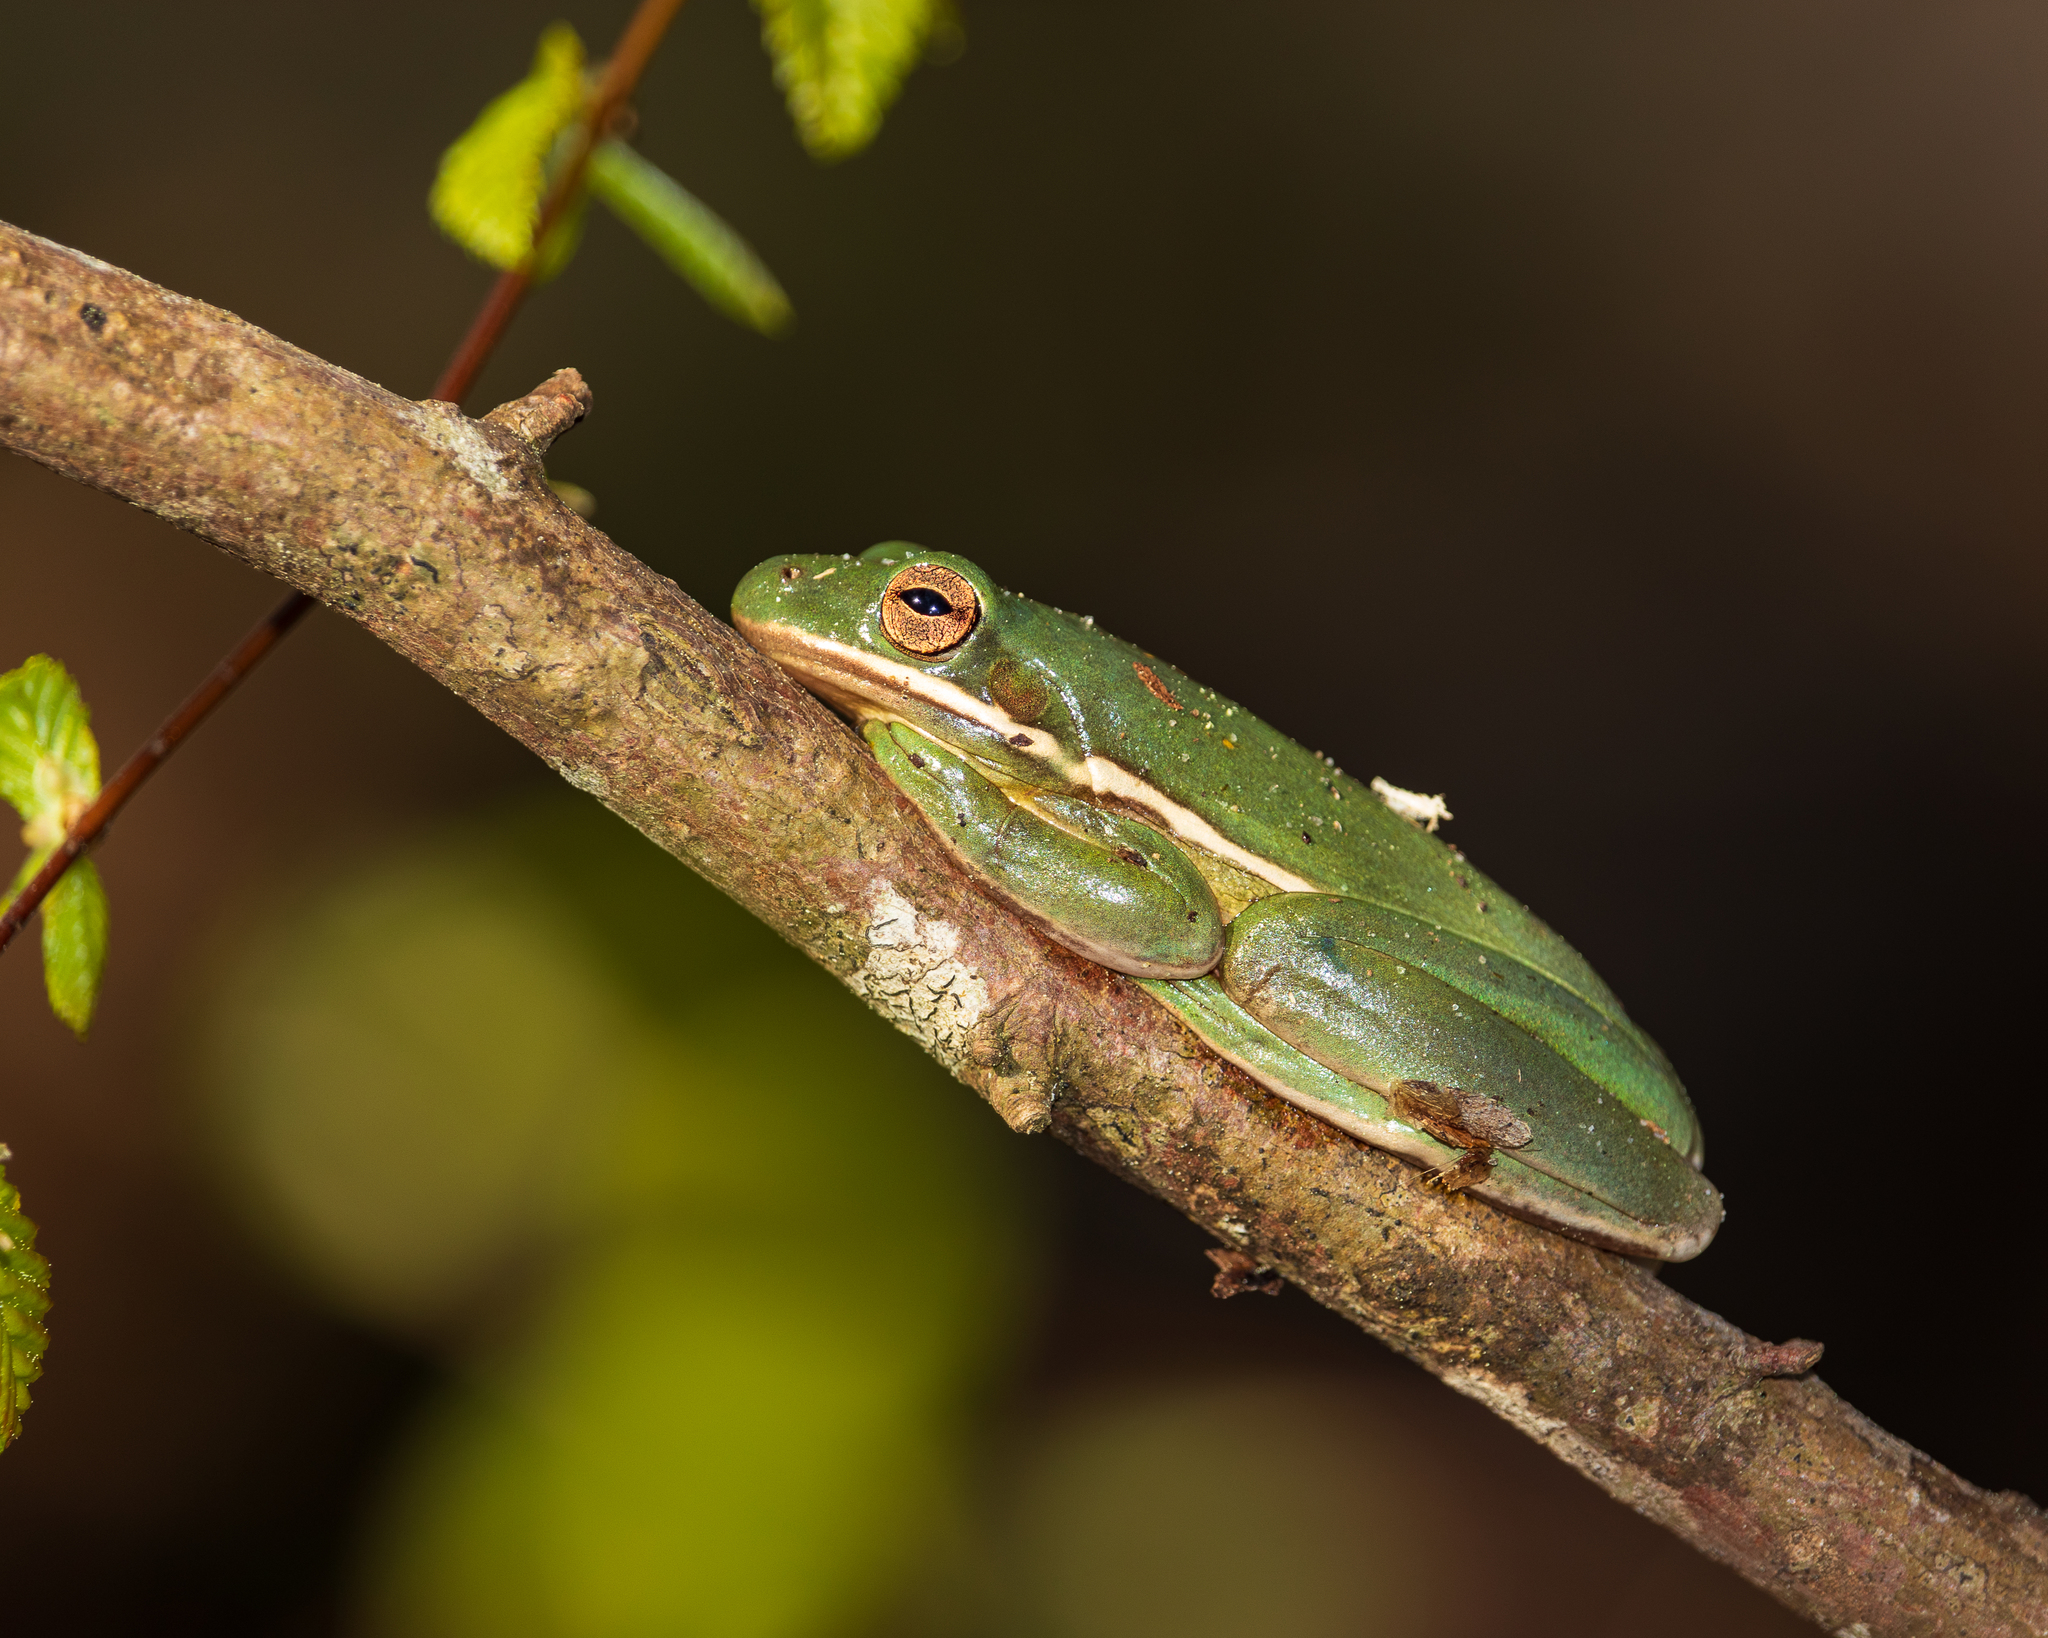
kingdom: Animalia
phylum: Chordata
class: Amphibia
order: Anura
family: Hylidae
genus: Dryophytes
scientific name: Dryophytes cinereus
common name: Green treefrog
